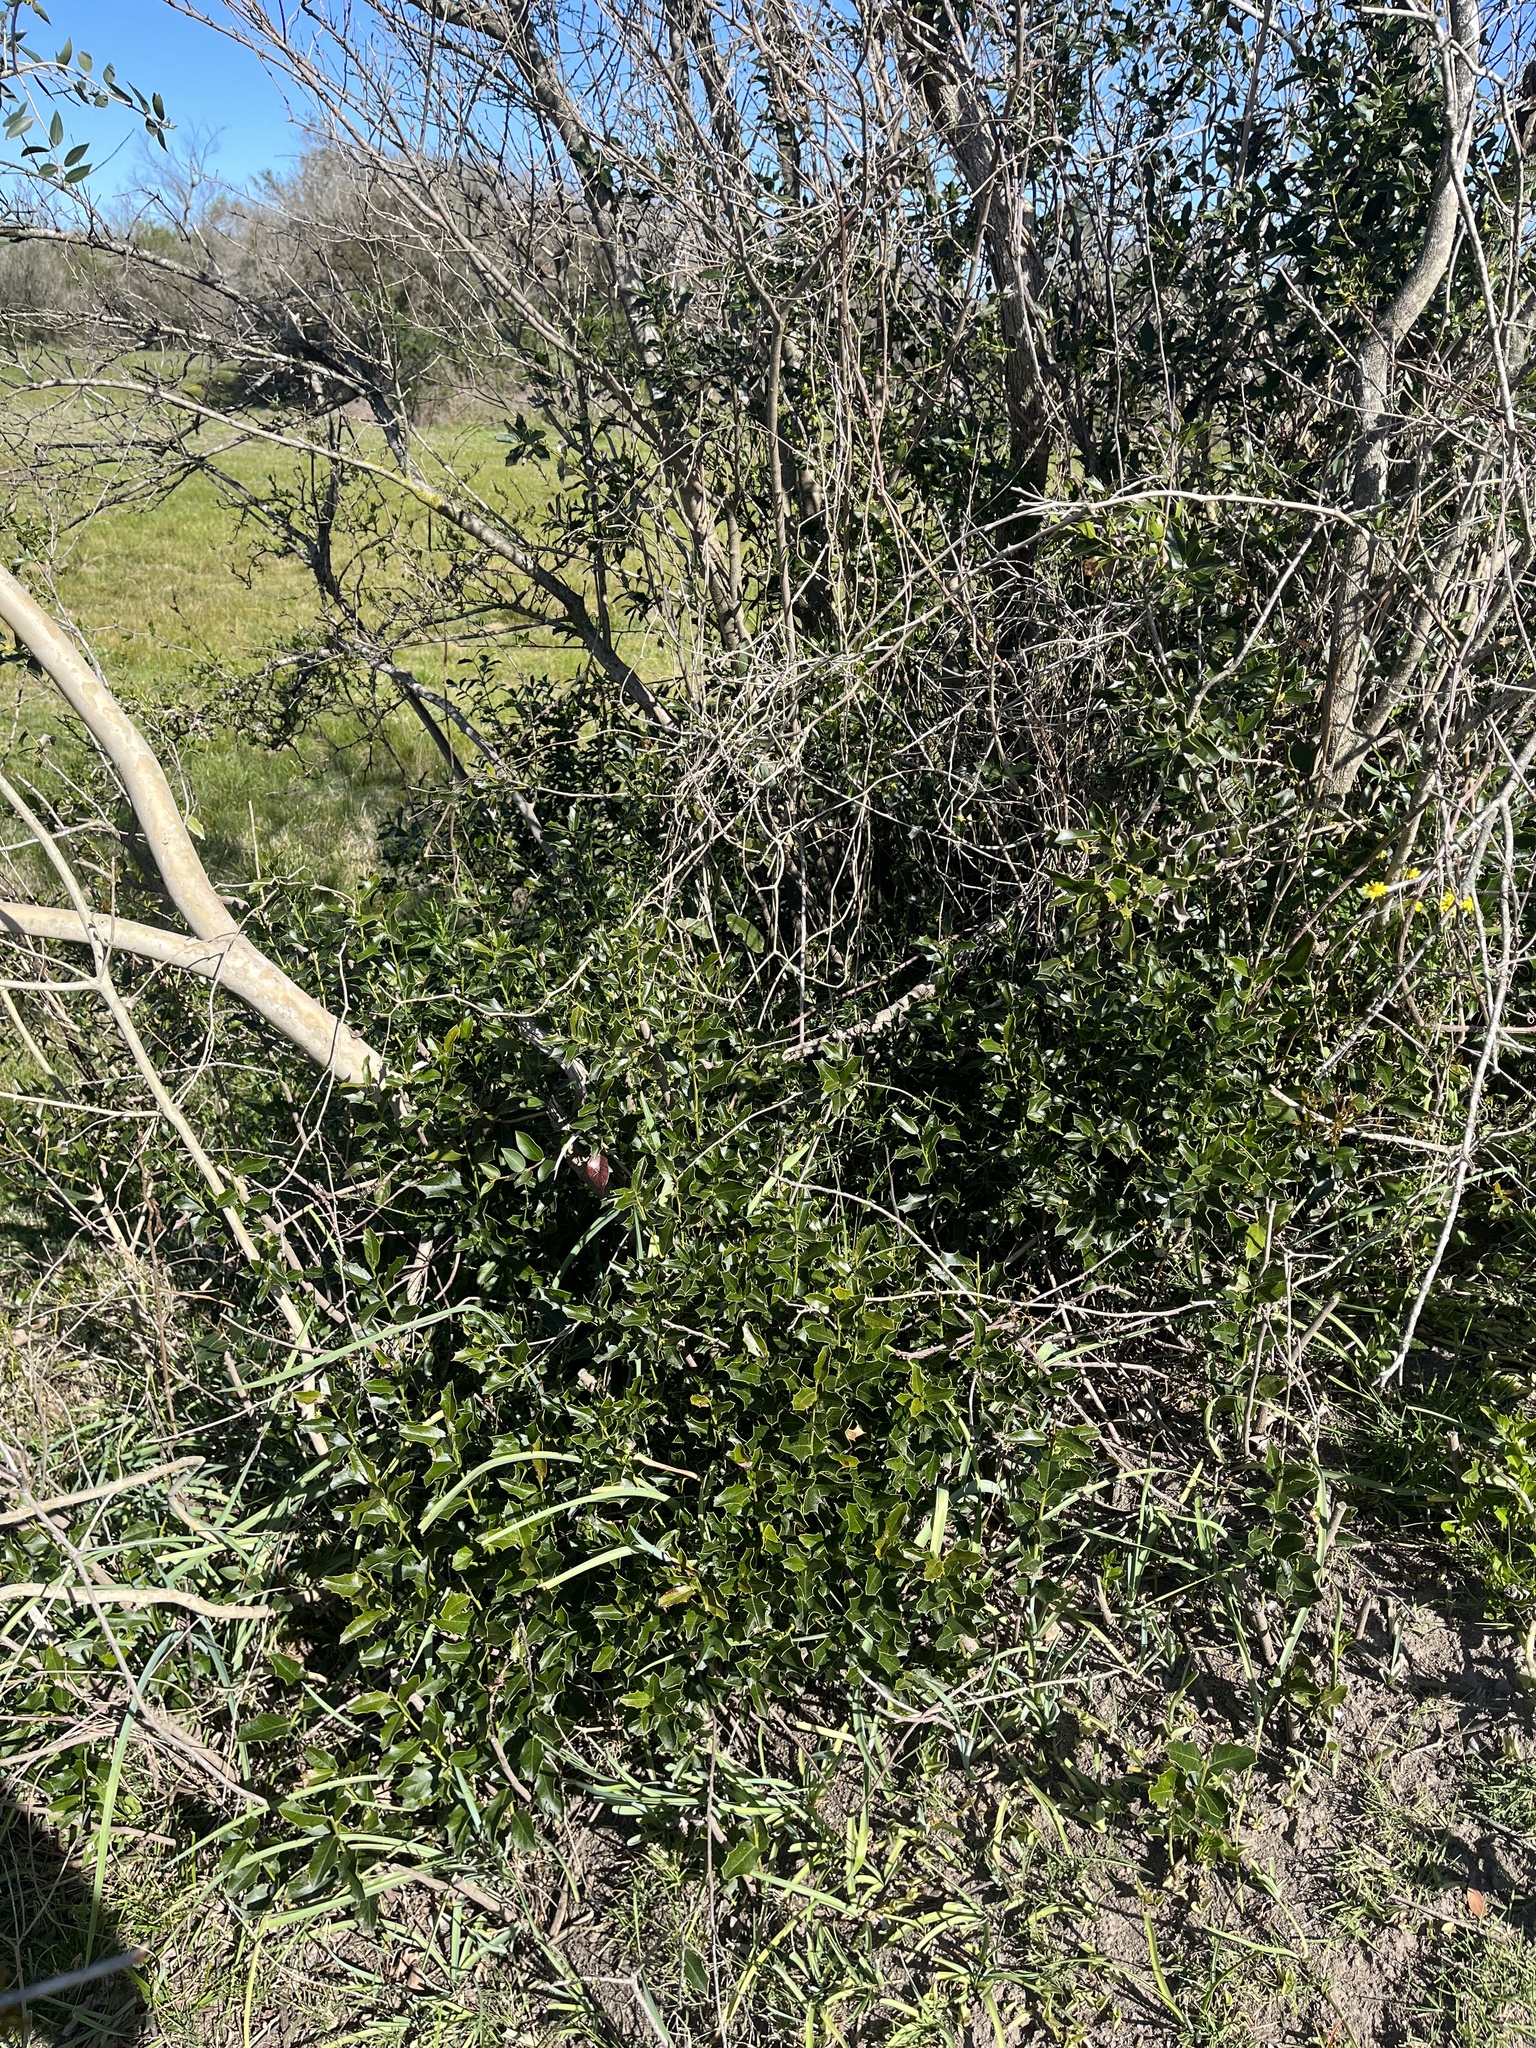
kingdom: Plantae
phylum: Tracheophyta
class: Magnoliopsida
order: Celastrales
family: Celastraceae
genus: Monteverdia
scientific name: Monteverdia
